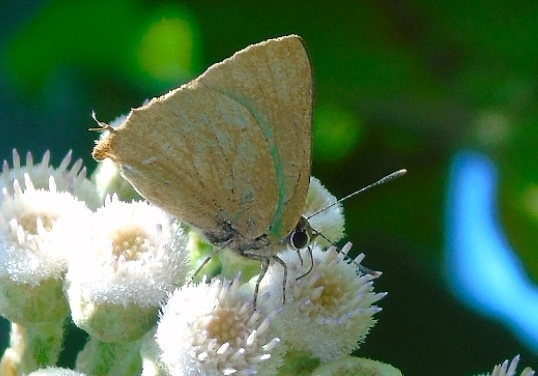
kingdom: Animalia
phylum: Arthropoda
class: Insecta
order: Lepidoptera
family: Lycaenidae
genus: Cyanophrys
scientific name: Cyanophrys
